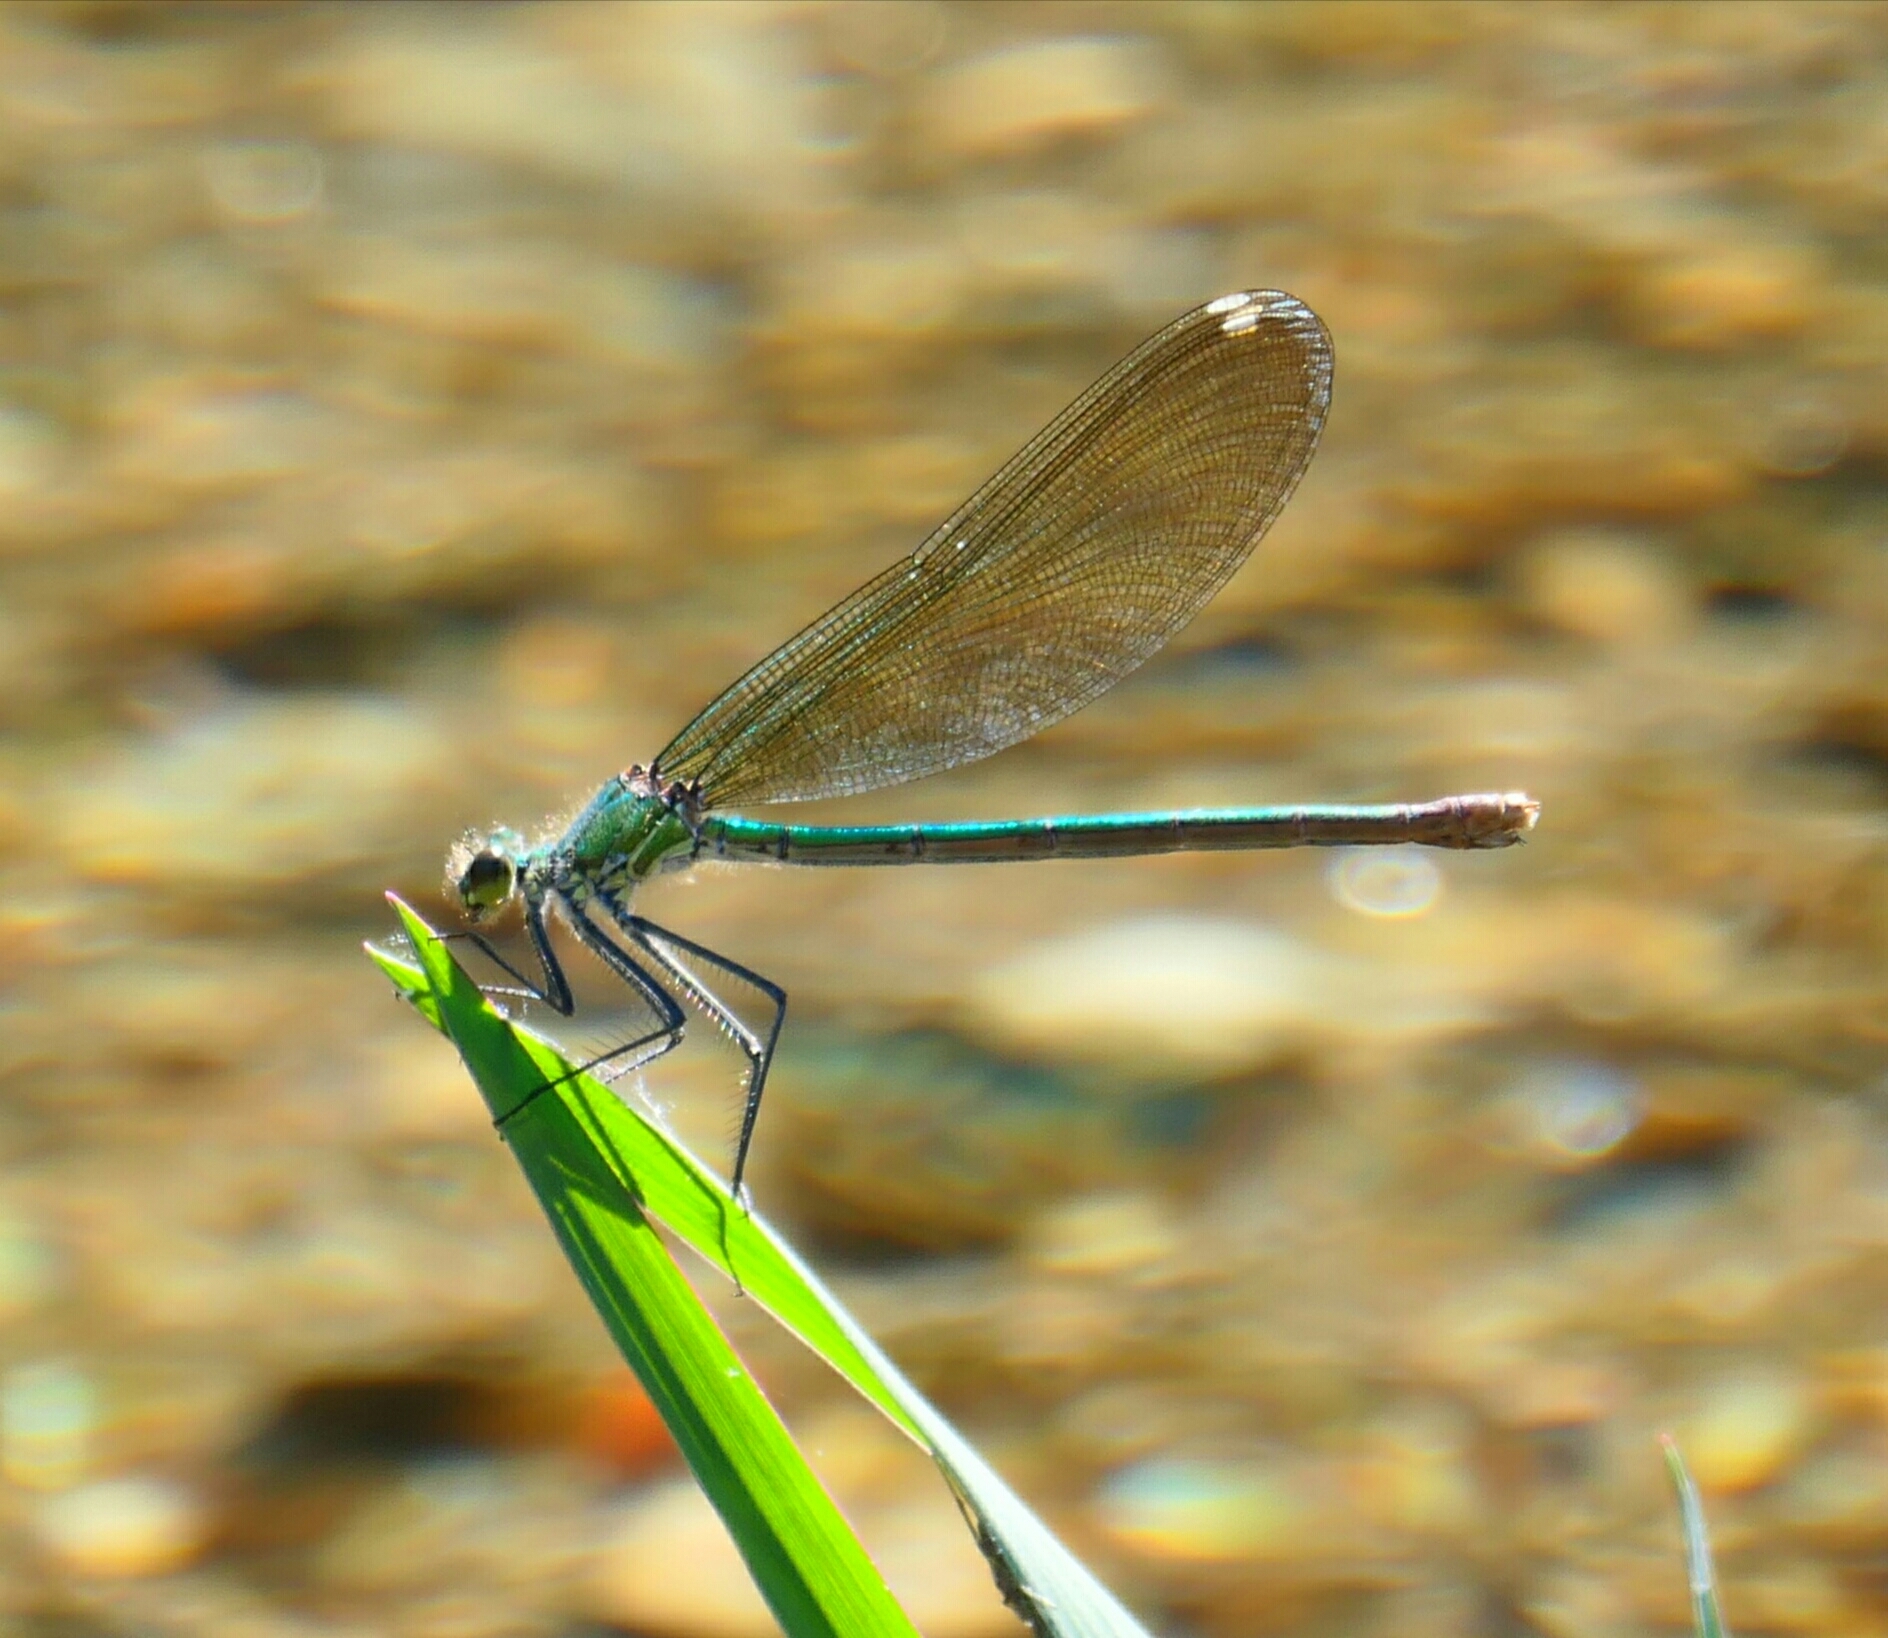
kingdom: Animalia
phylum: Arthropoda
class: Insecta
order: Odonata
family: Calopterygidae
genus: Calopteryx
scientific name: Calopteryx xanthostoma
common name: Western demoiselle
